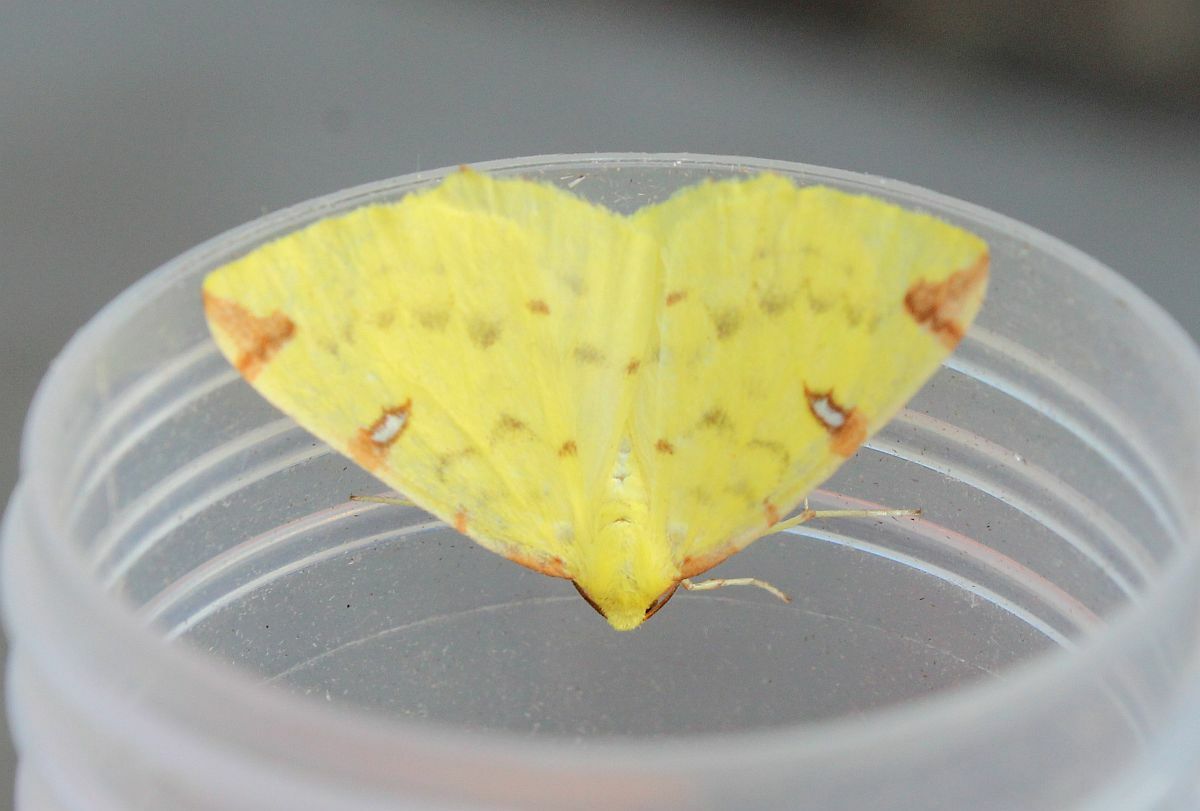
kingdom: Animalia
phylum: Arthropoda
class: Insecta
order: Lepidoptera
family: Geometridae
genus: Opisthograptis
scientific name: Opisthograptis luteolata
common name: Brimstone moth
